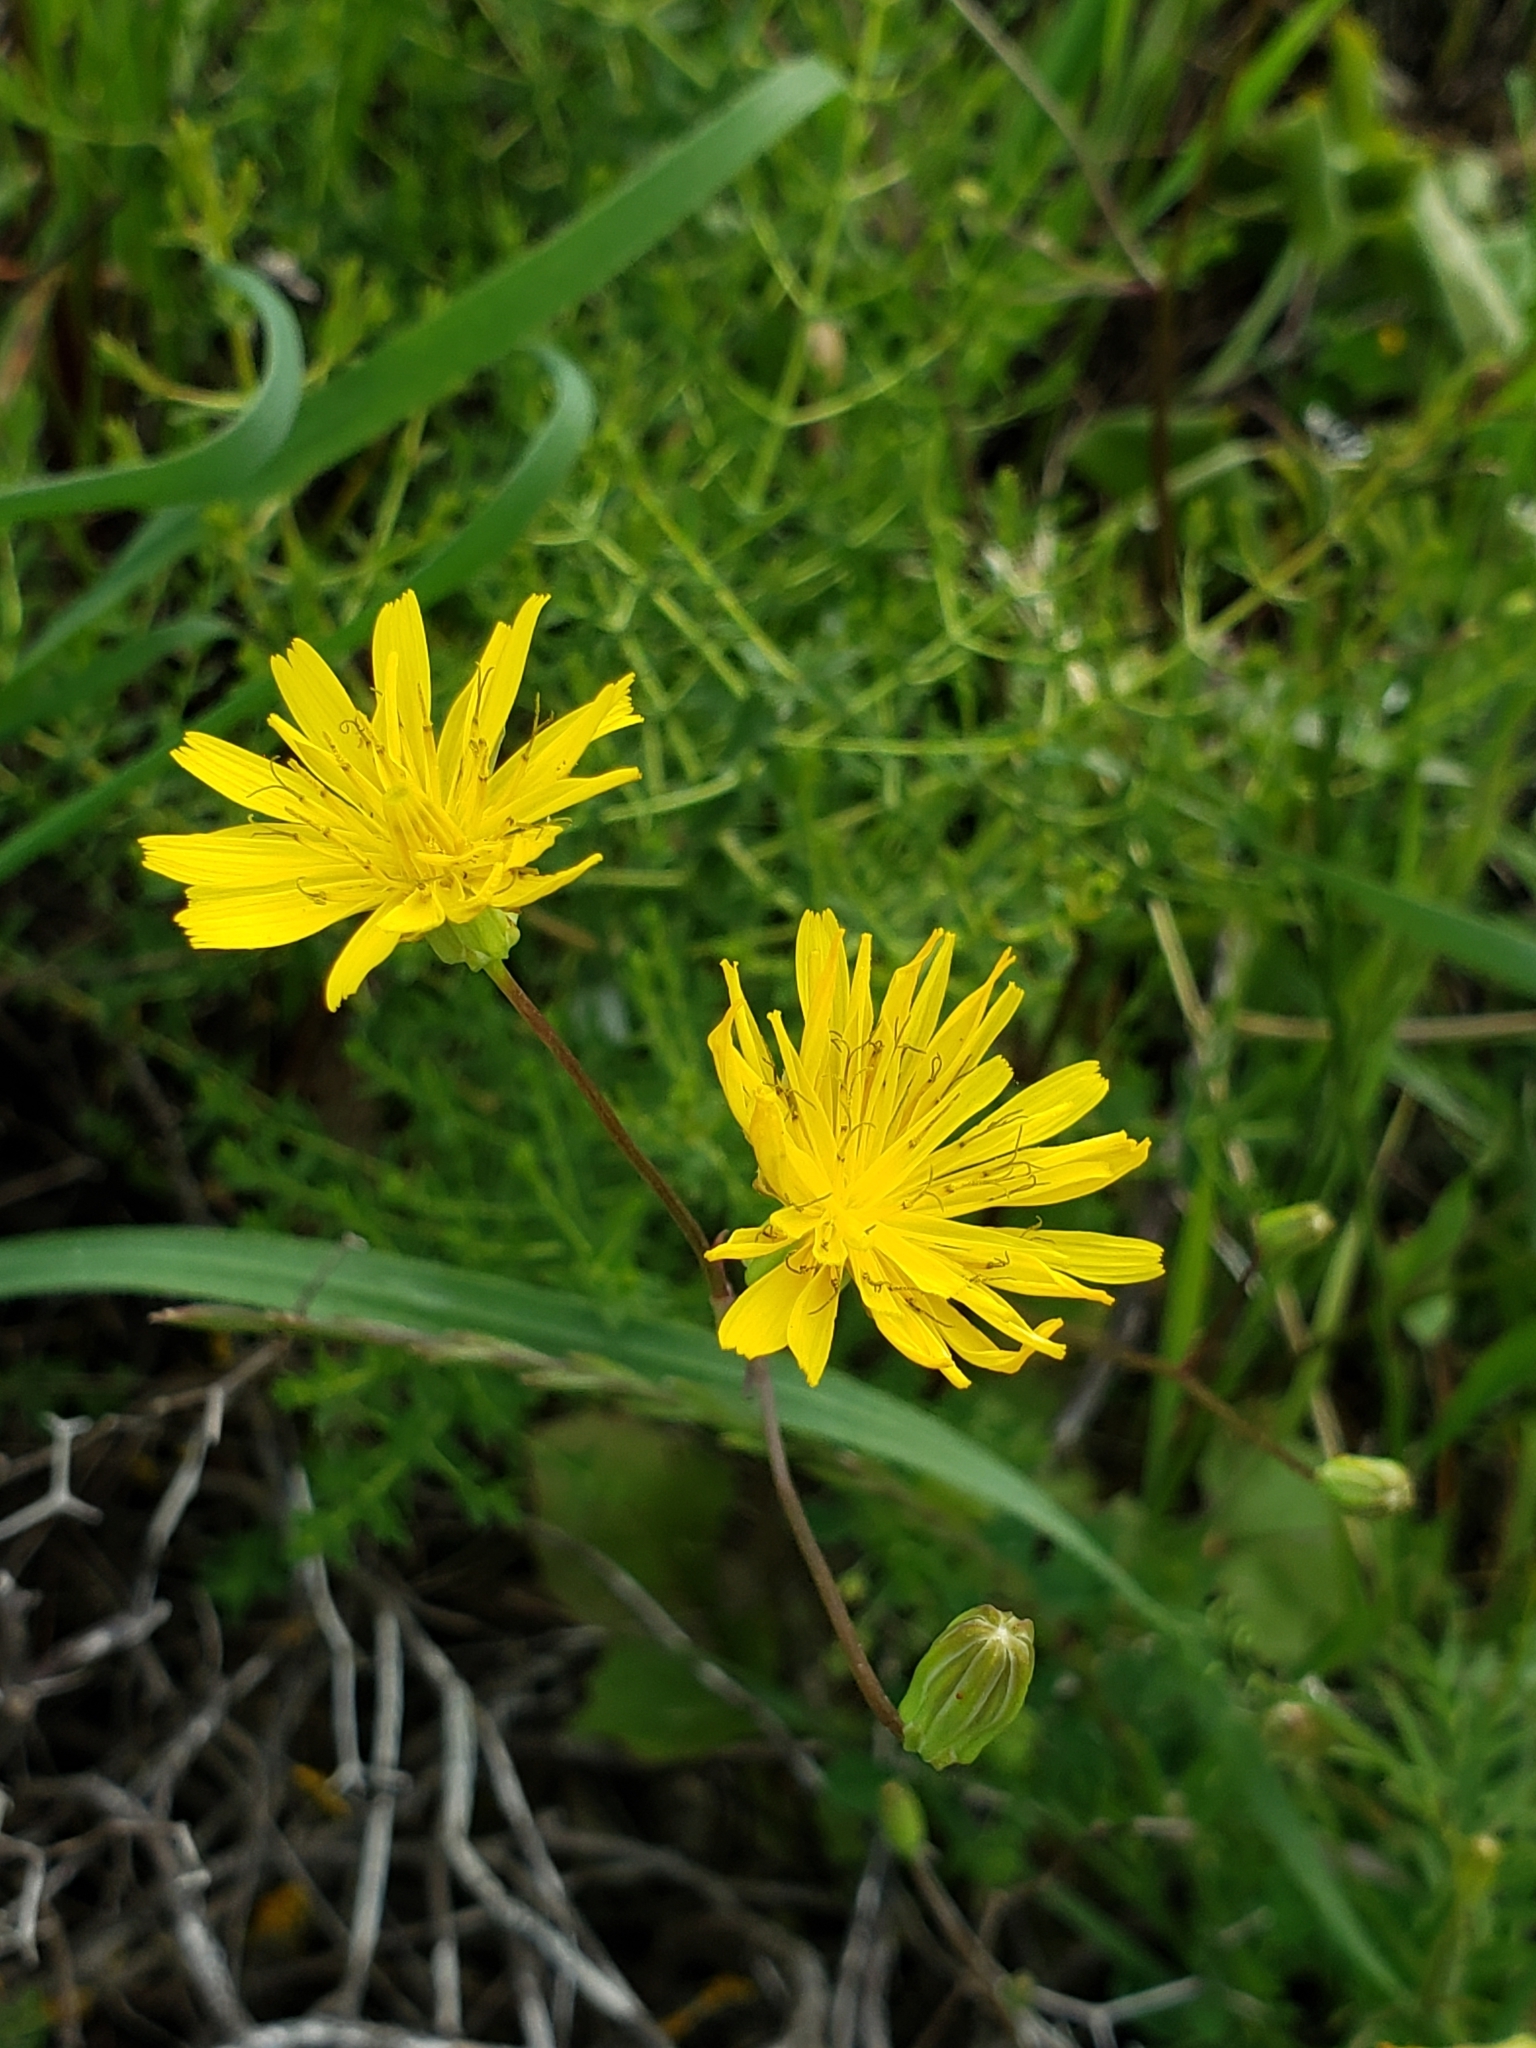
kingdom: Plantae
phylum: Tracheophyta
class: Magnoliopsida
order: Asterales
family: Asteraceae
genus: Rhagadiolus
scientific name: Rhagadiolus stellatus
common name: Star hawkbit
